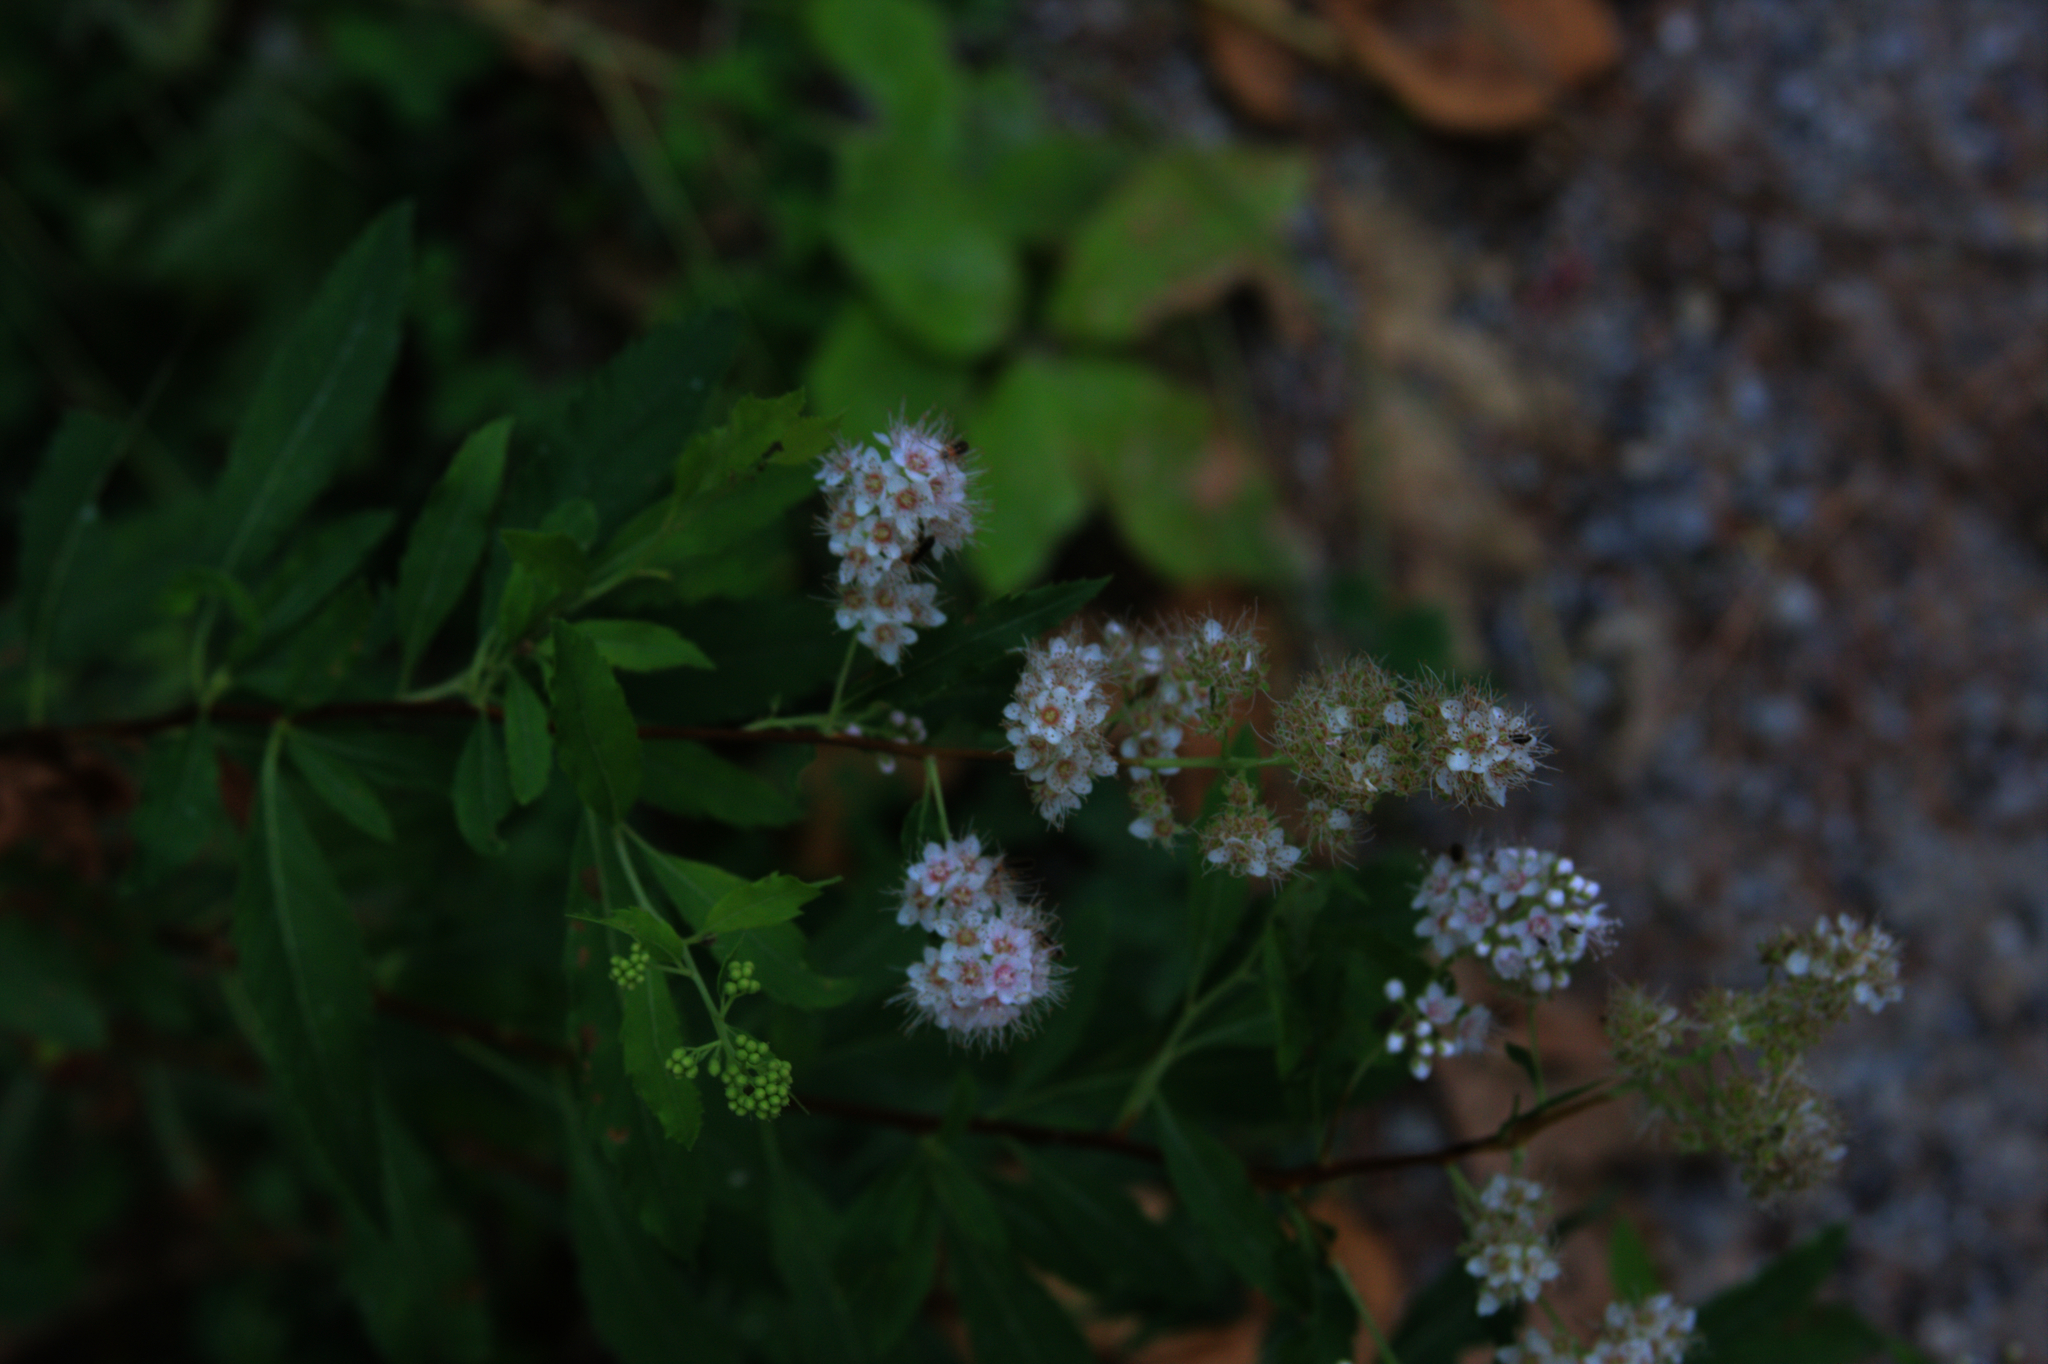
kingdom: Plantae
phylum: Tracheophyta
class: Magnoliopsida
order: Rosales
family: Rosaceae
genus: Spiraea
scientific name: Spiraea alba
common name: Pale bridewort
